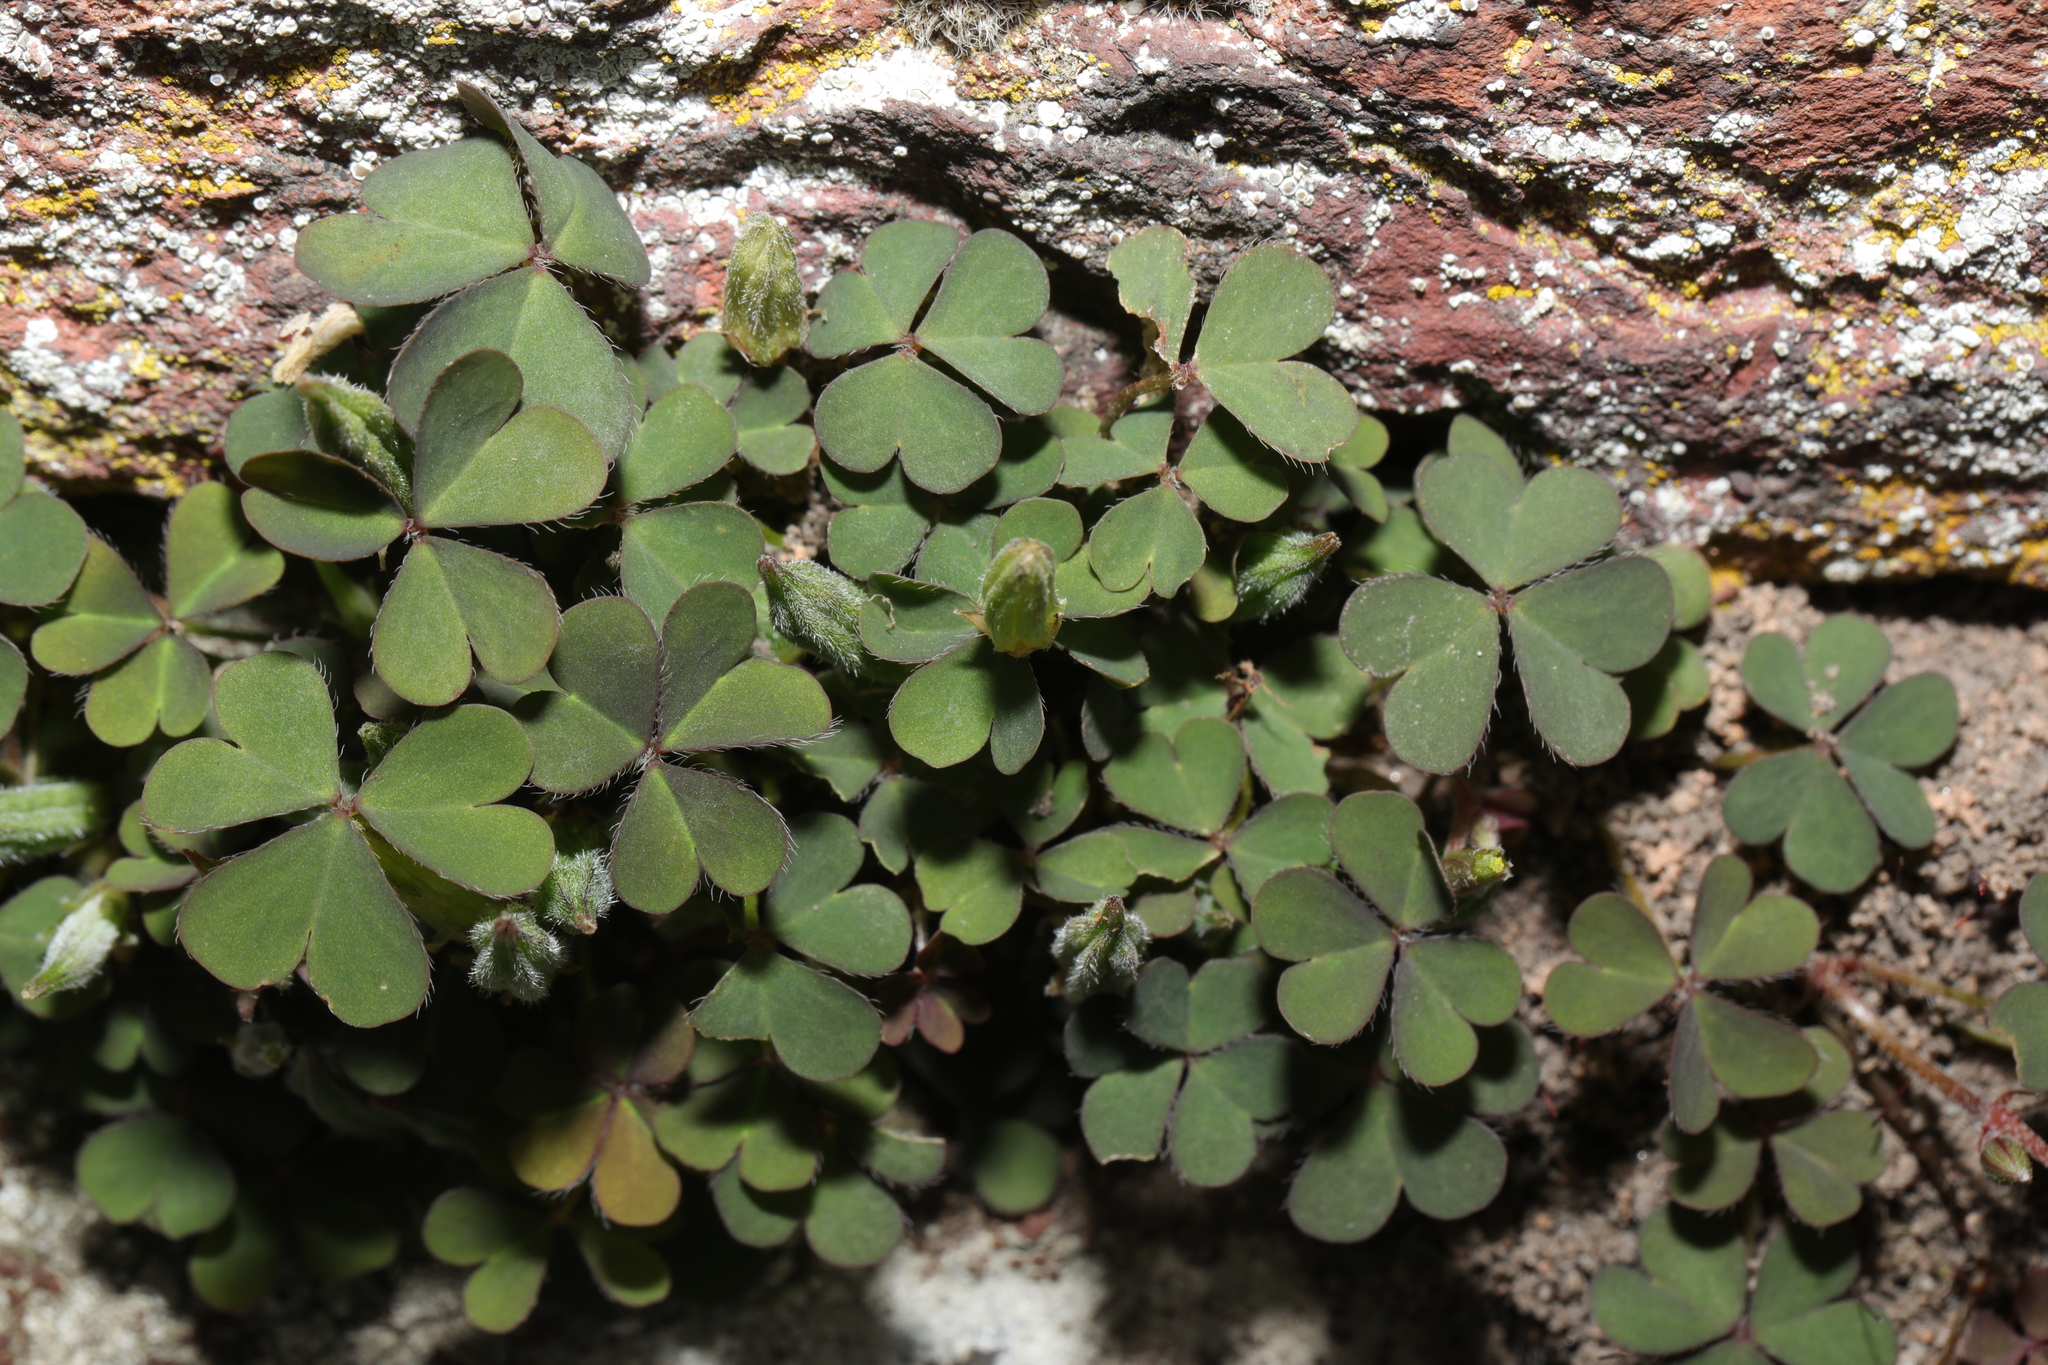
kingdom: Plantae
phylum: Tracheophyta
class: Magnoliopsida
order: Oxalidales
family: Oxalidaceae
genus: Oxalis
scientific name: Oxalis corniculata
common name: Procumbent yellow-sorrel
